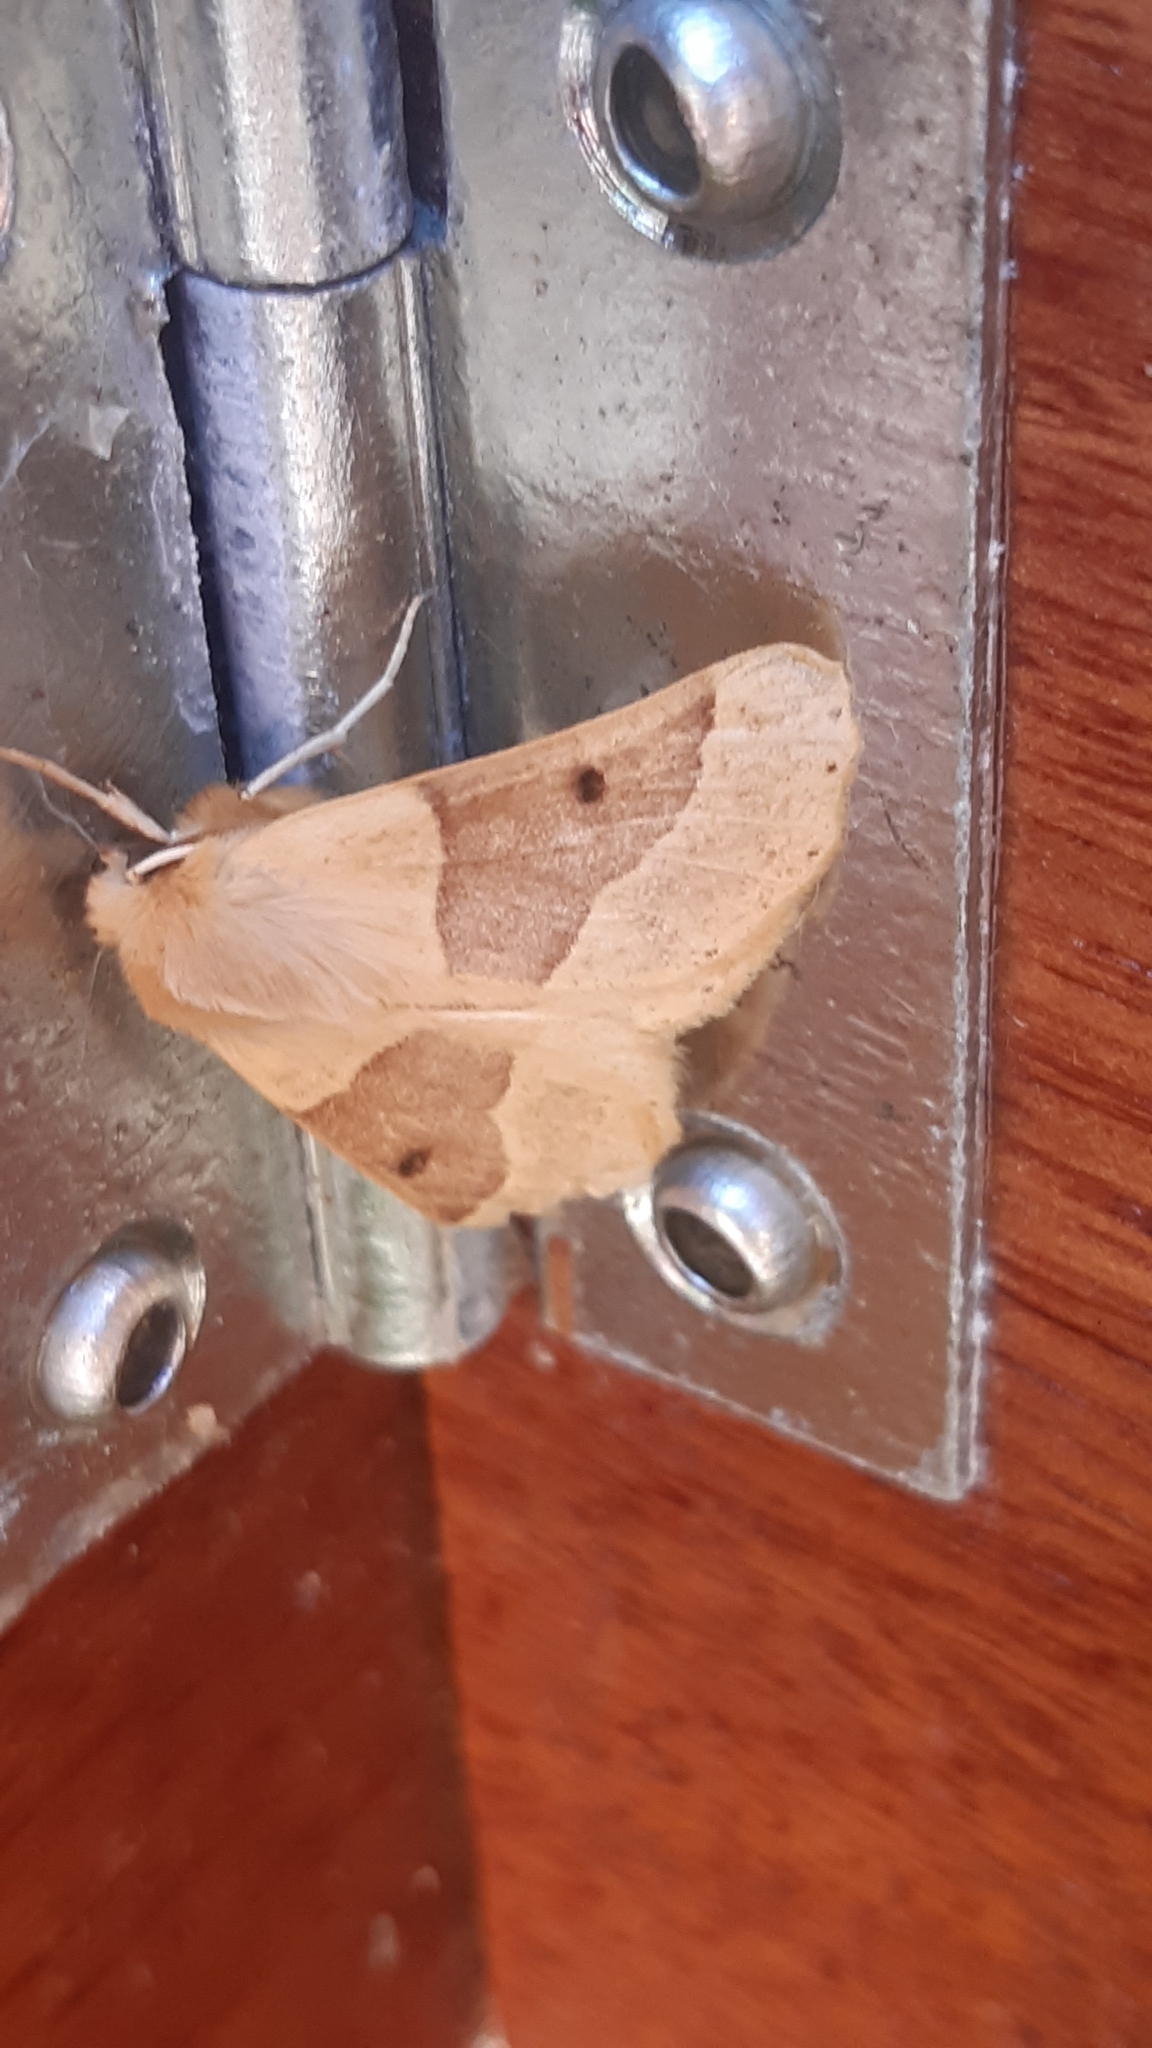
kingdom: Animalia
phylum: Arthropoda
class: Insecta
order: Lepidoptera
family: Geometridae
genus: Crocallis
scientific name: Crocallis elinguaria
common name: Scalloped oak
